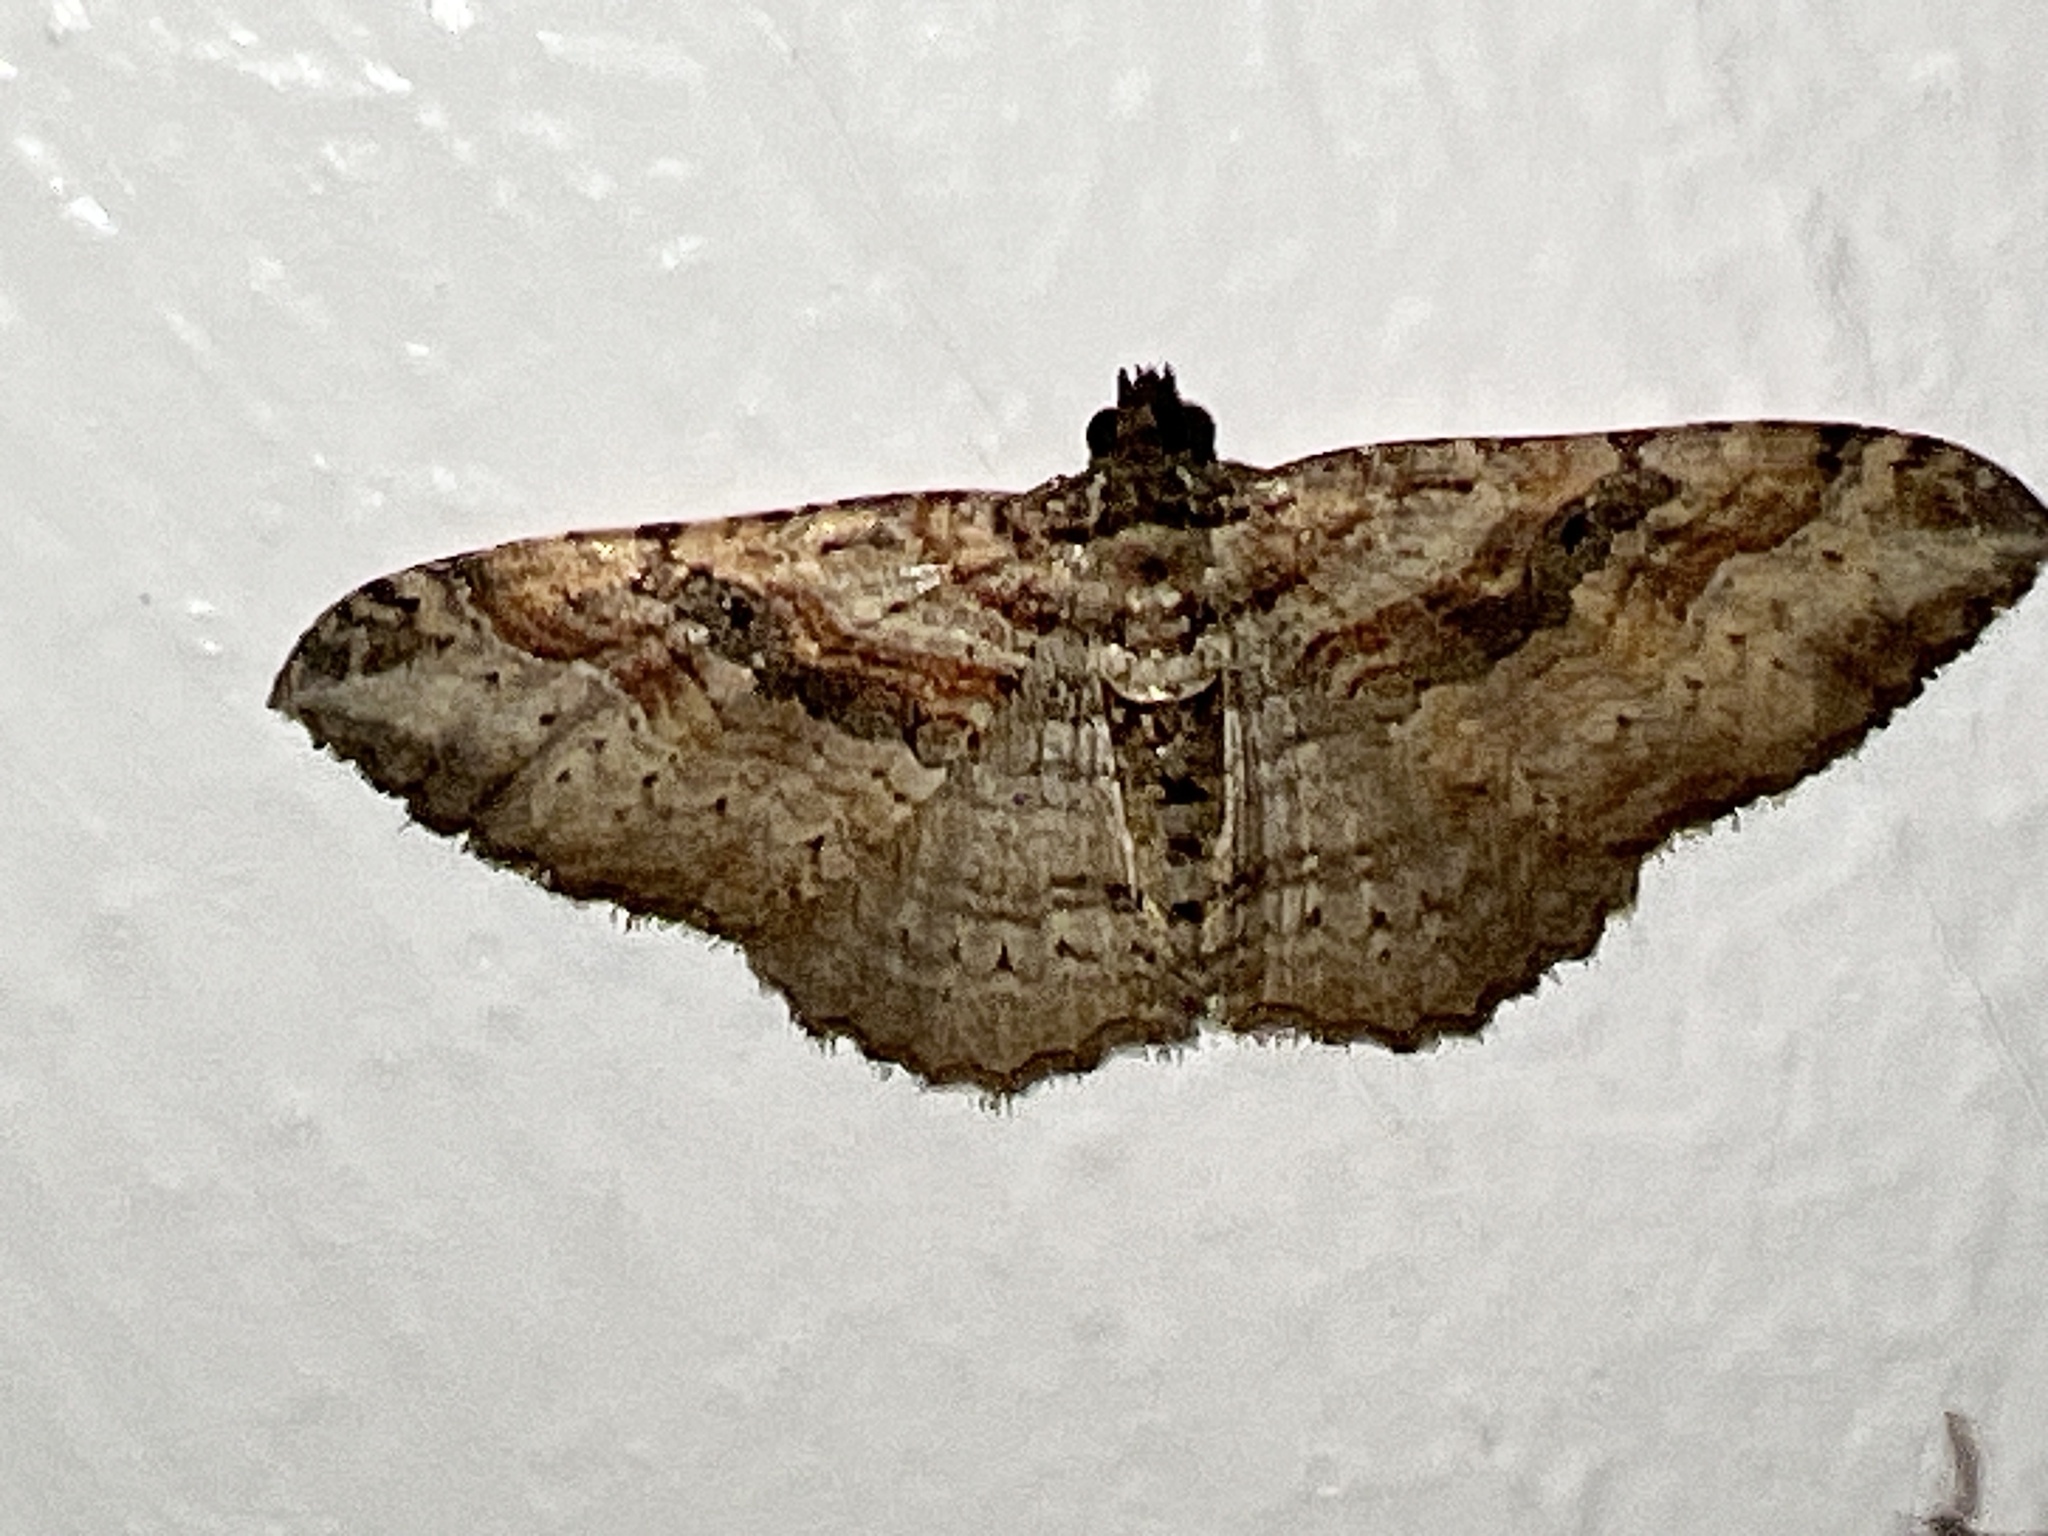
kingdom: Animalia
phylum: Arthropoda
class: Insecta
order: Lepidoptera
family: Geometridae
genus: Costaconvexa
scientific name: Costaconvexa centrostrigaria
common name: Bent-line carpet
